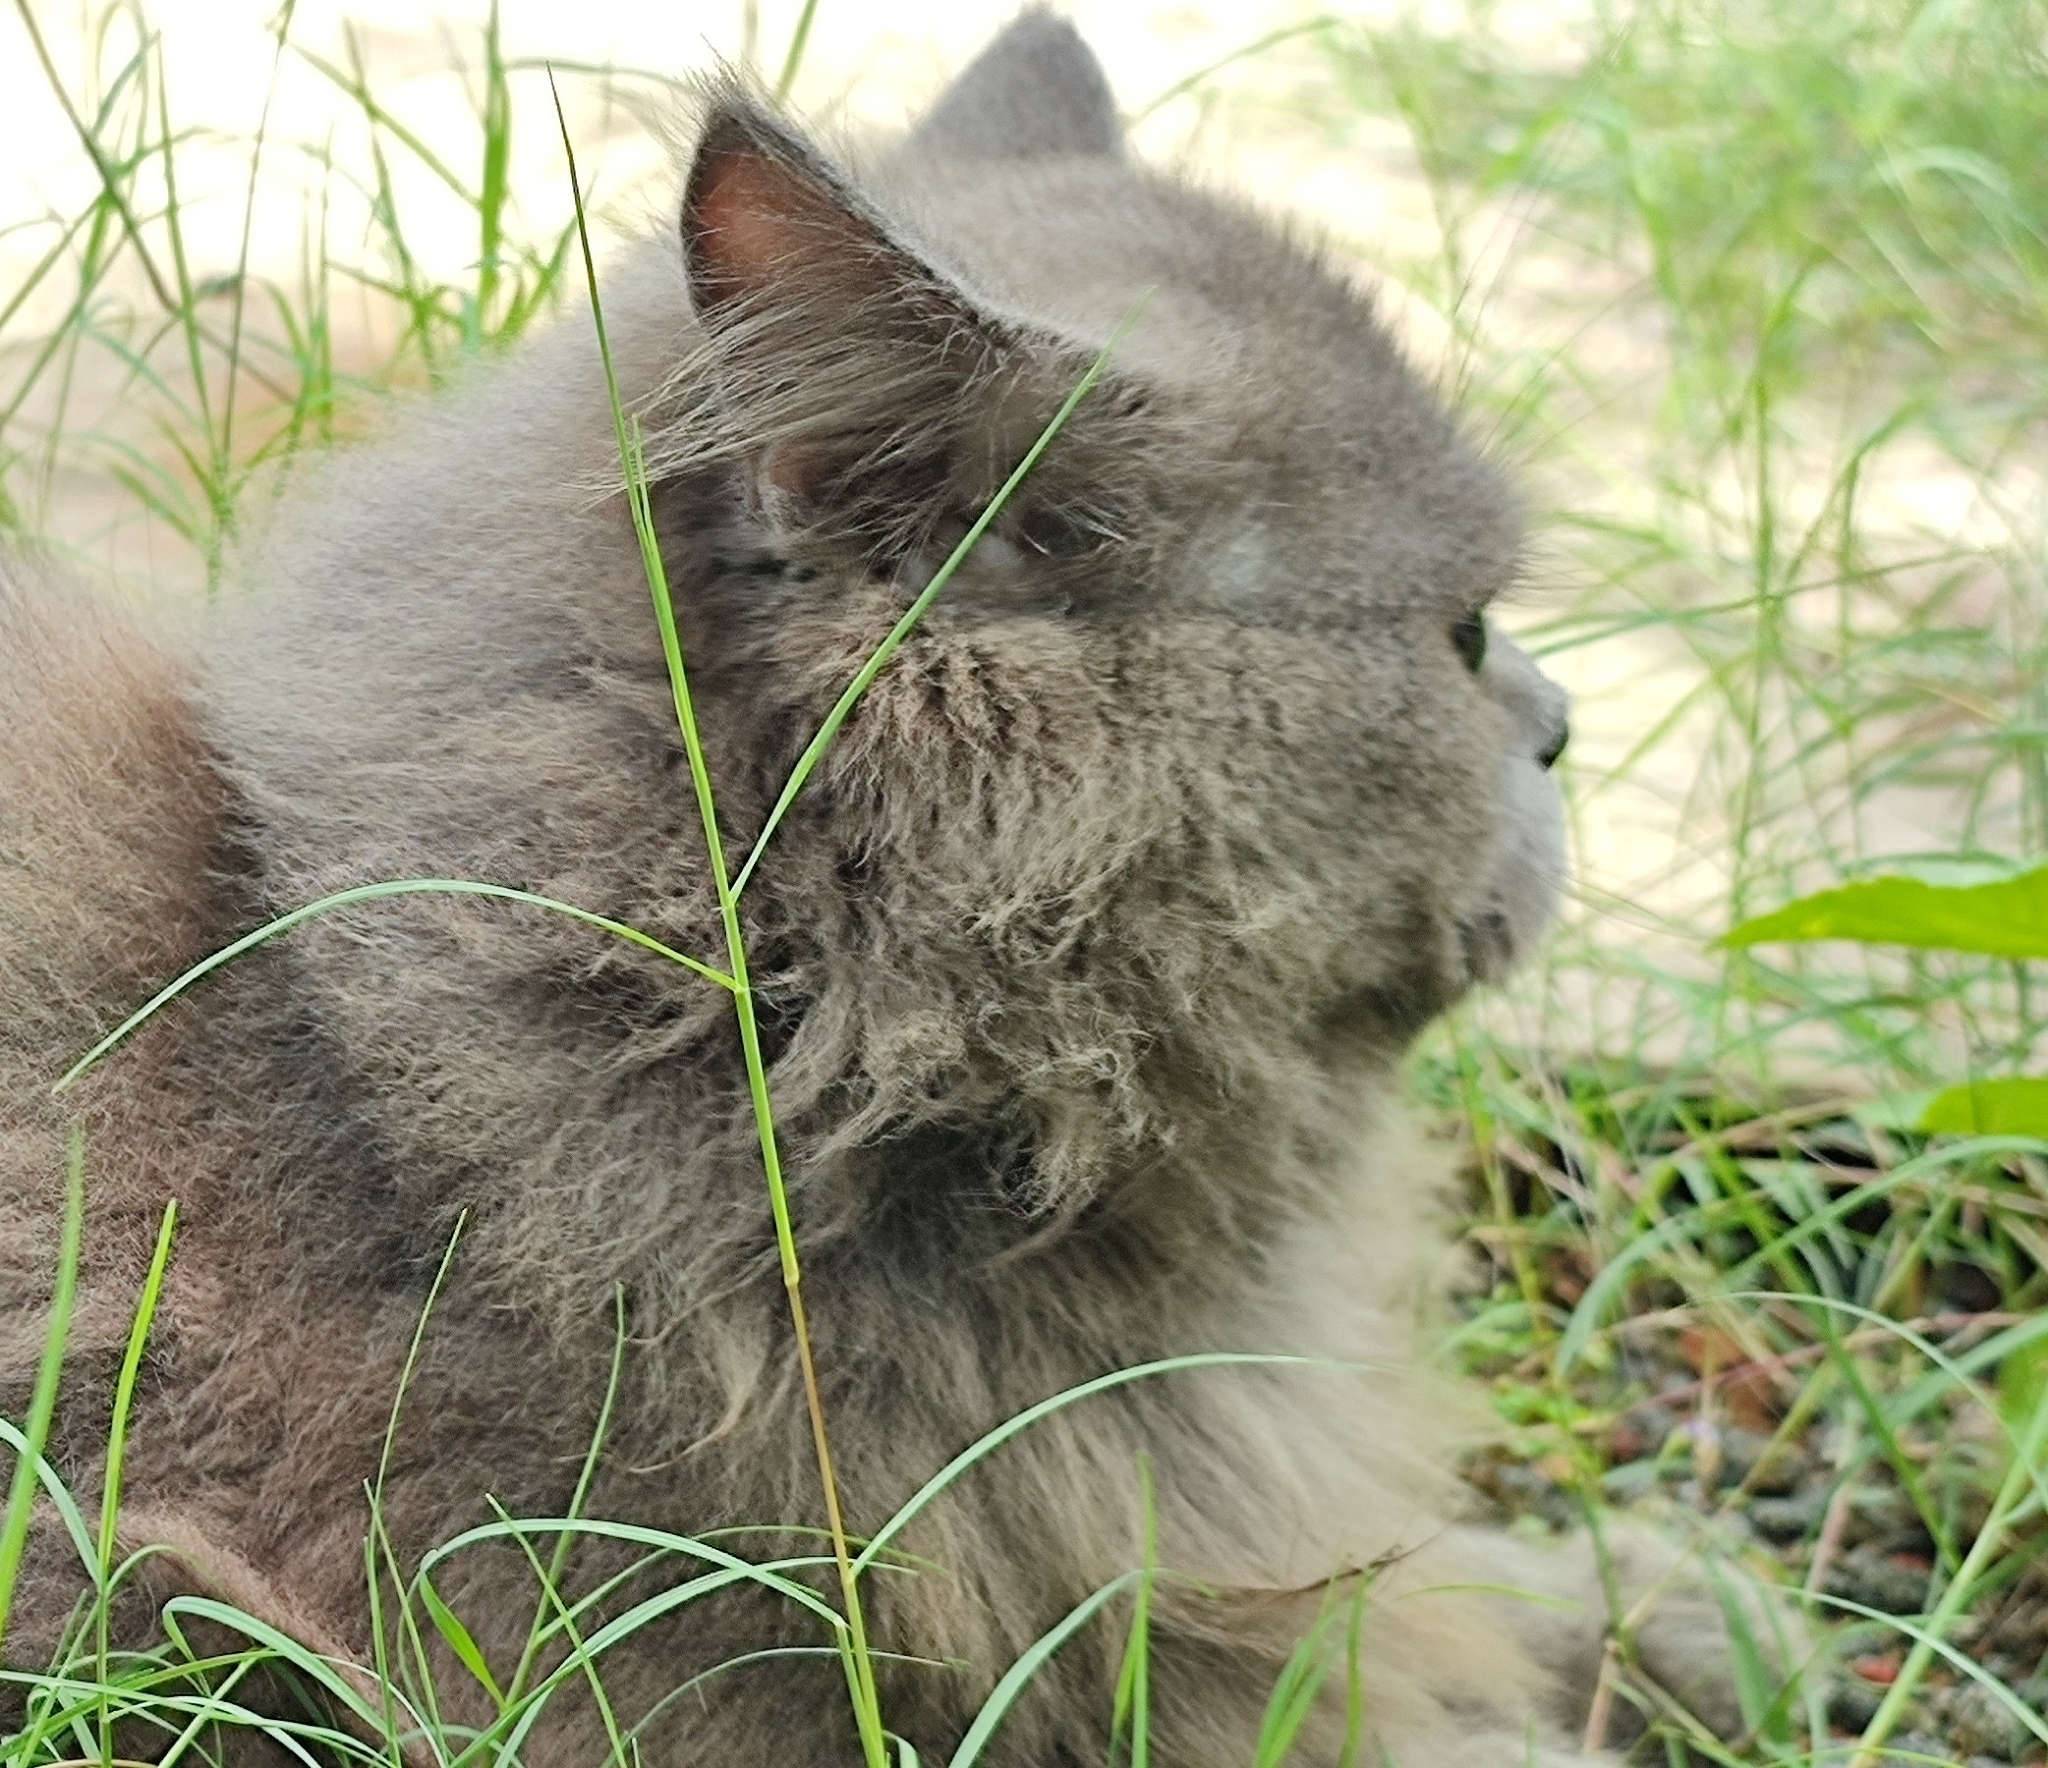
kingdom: Animalia
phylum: Chordata
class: Mammalia
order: Carnivora
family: Felidae
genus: Felis
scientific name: Felis catus
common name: Domestic cat
